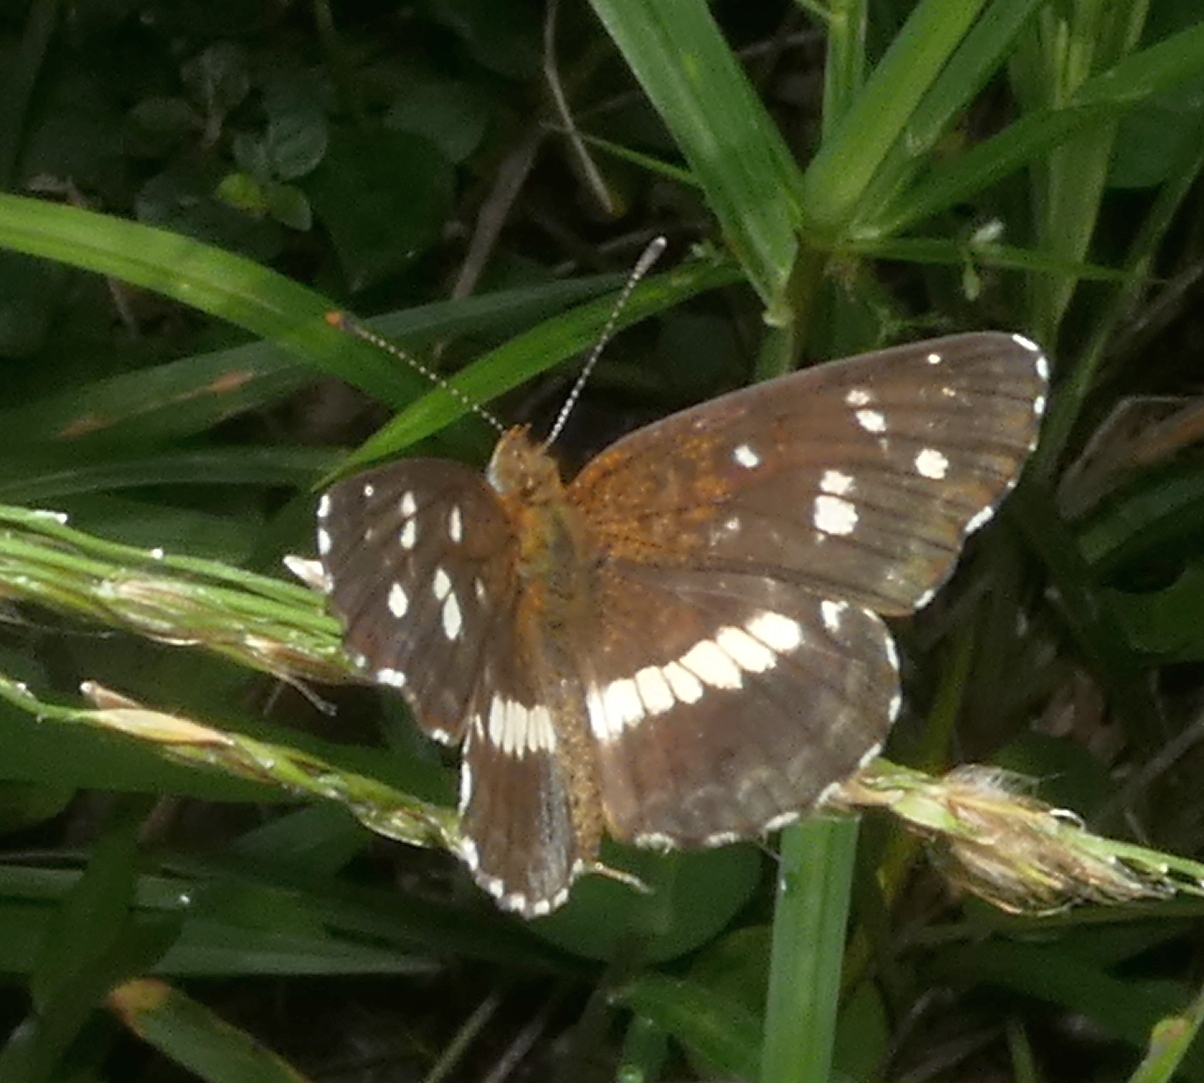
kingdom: Animalia
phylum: Arthropoda
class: Insecta
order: Lepidoptera
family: Nymphalidae
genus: Ortilia
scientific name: Ortilia ithra
